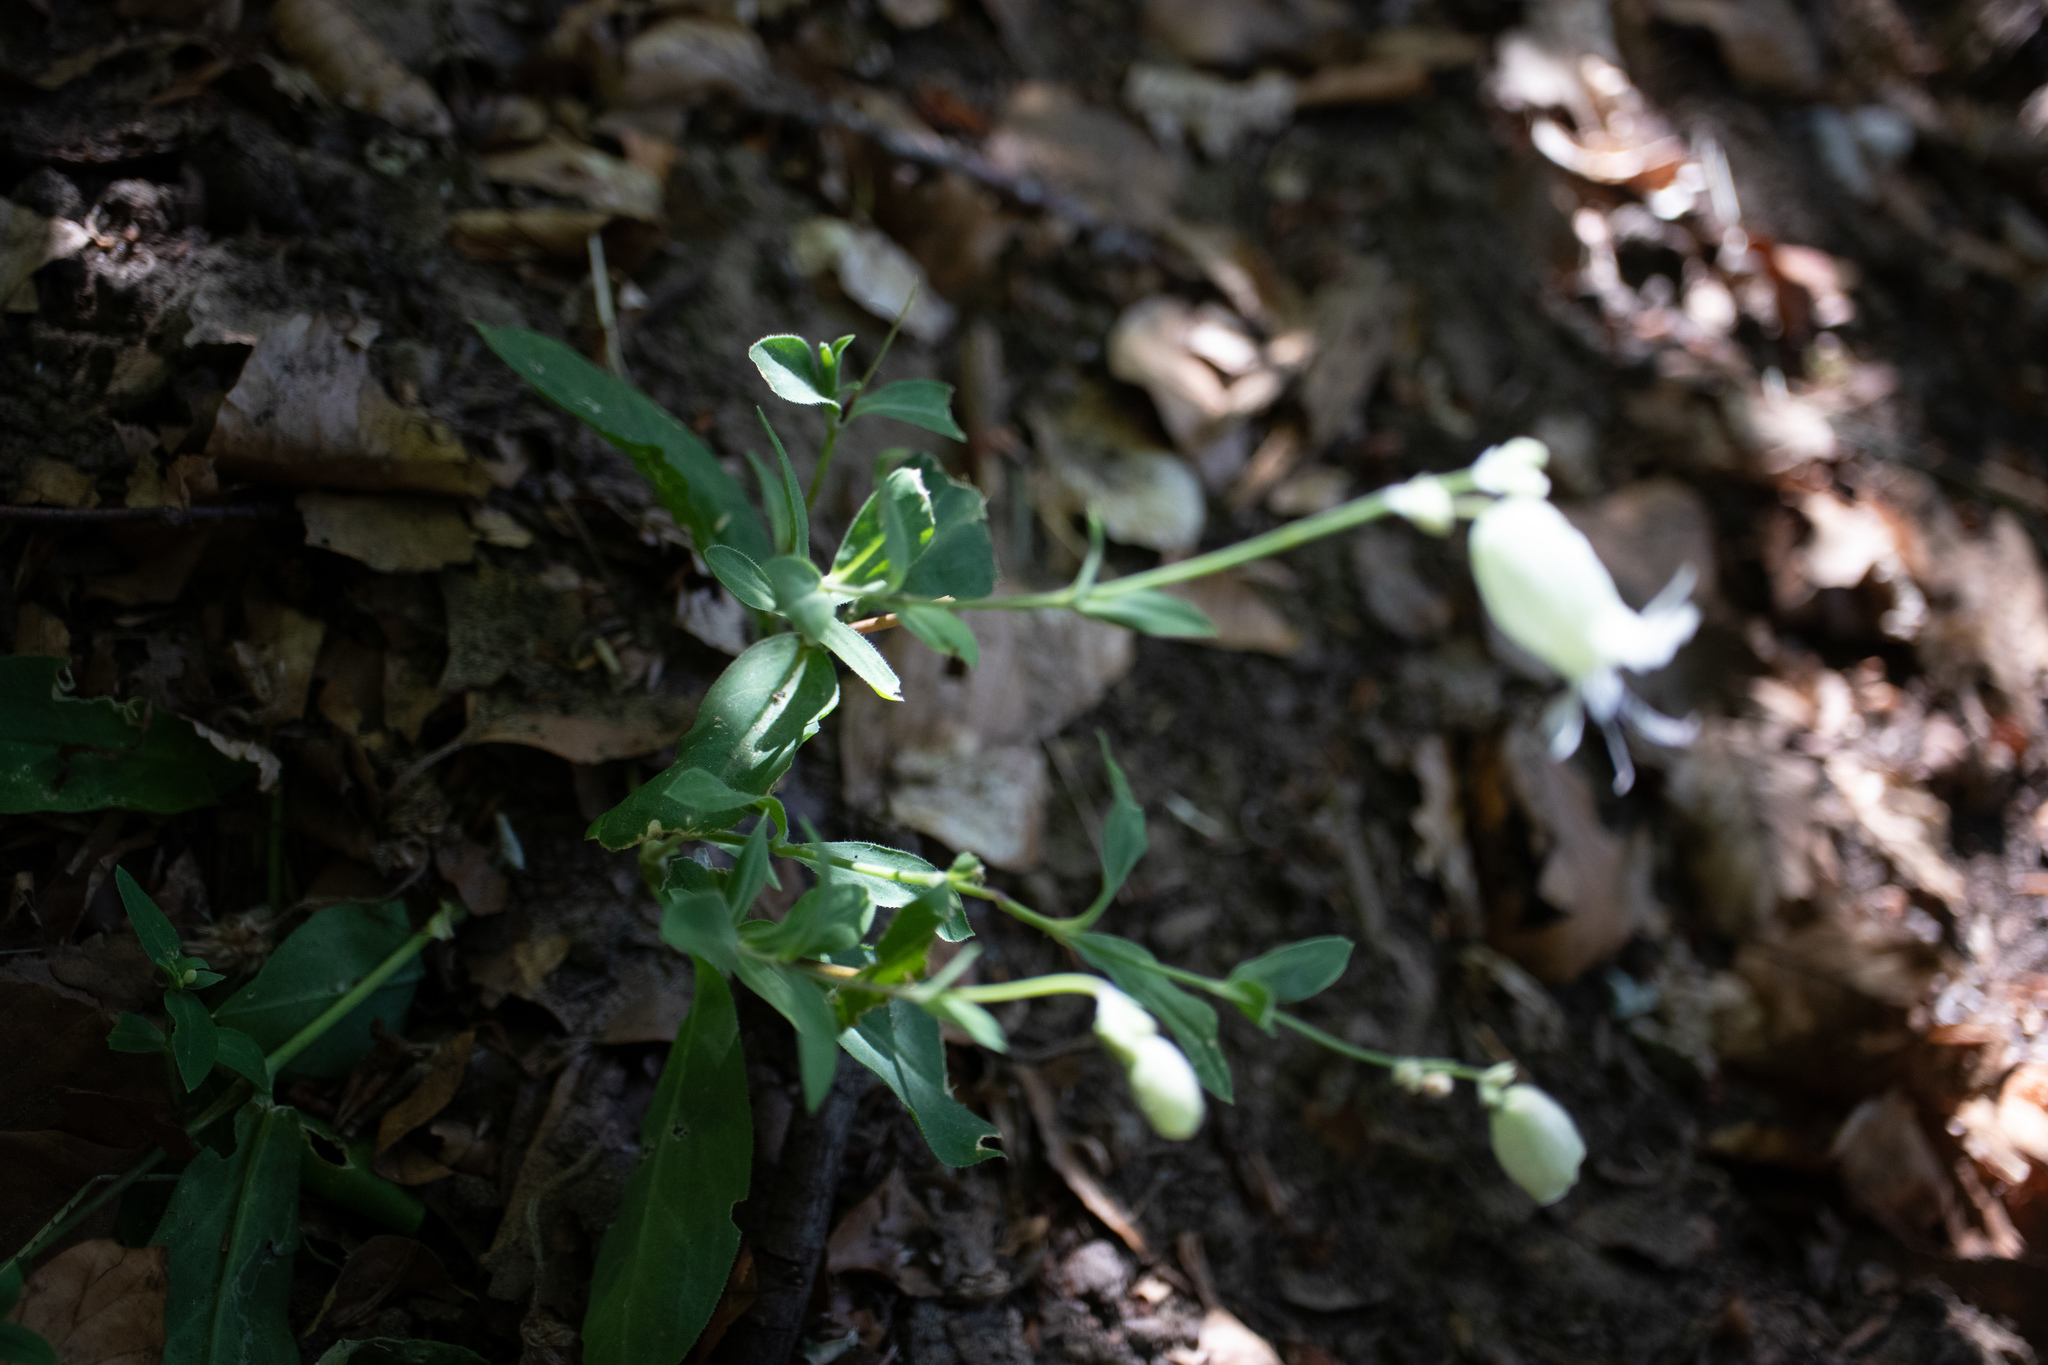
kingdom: Plantae
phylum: Tracheophyta
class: Magnoliopsida
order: Caryophyllales
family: Caryophyllaceae
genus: Silene
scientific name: Silene vulgaris
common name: Bladder campion
